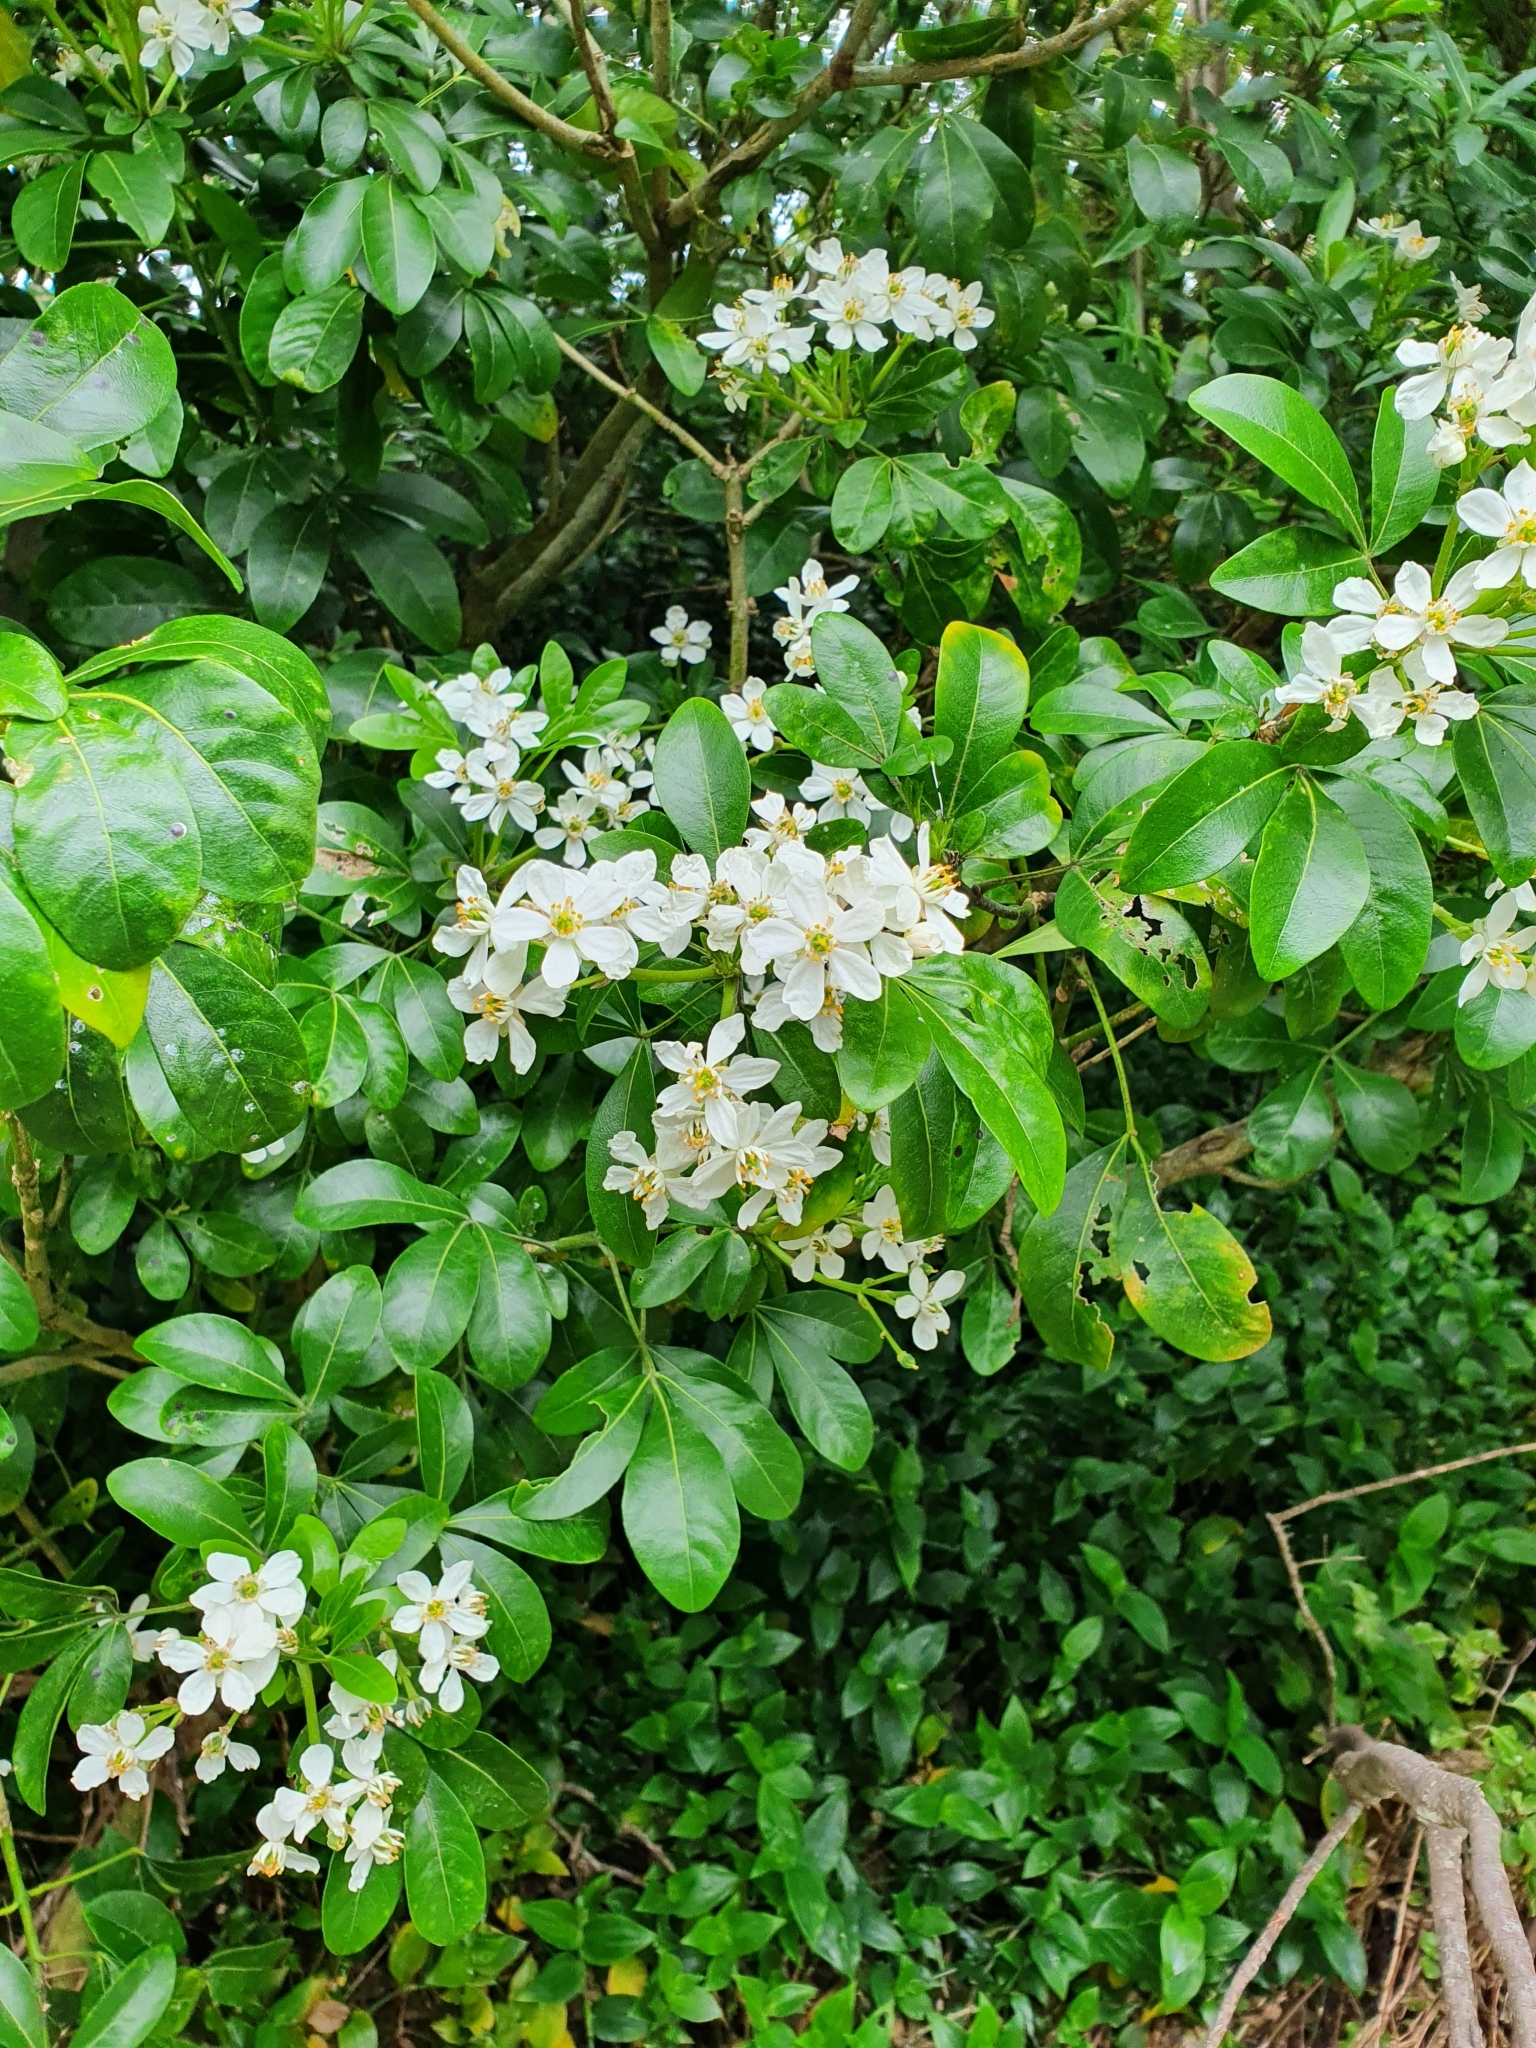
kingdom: Plantae
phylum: Tracheophyta
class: Magnoliopsida
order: Sapindales
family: Rutaceae
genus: Choisya
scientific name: Choisya ternata
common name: Mexican orange
